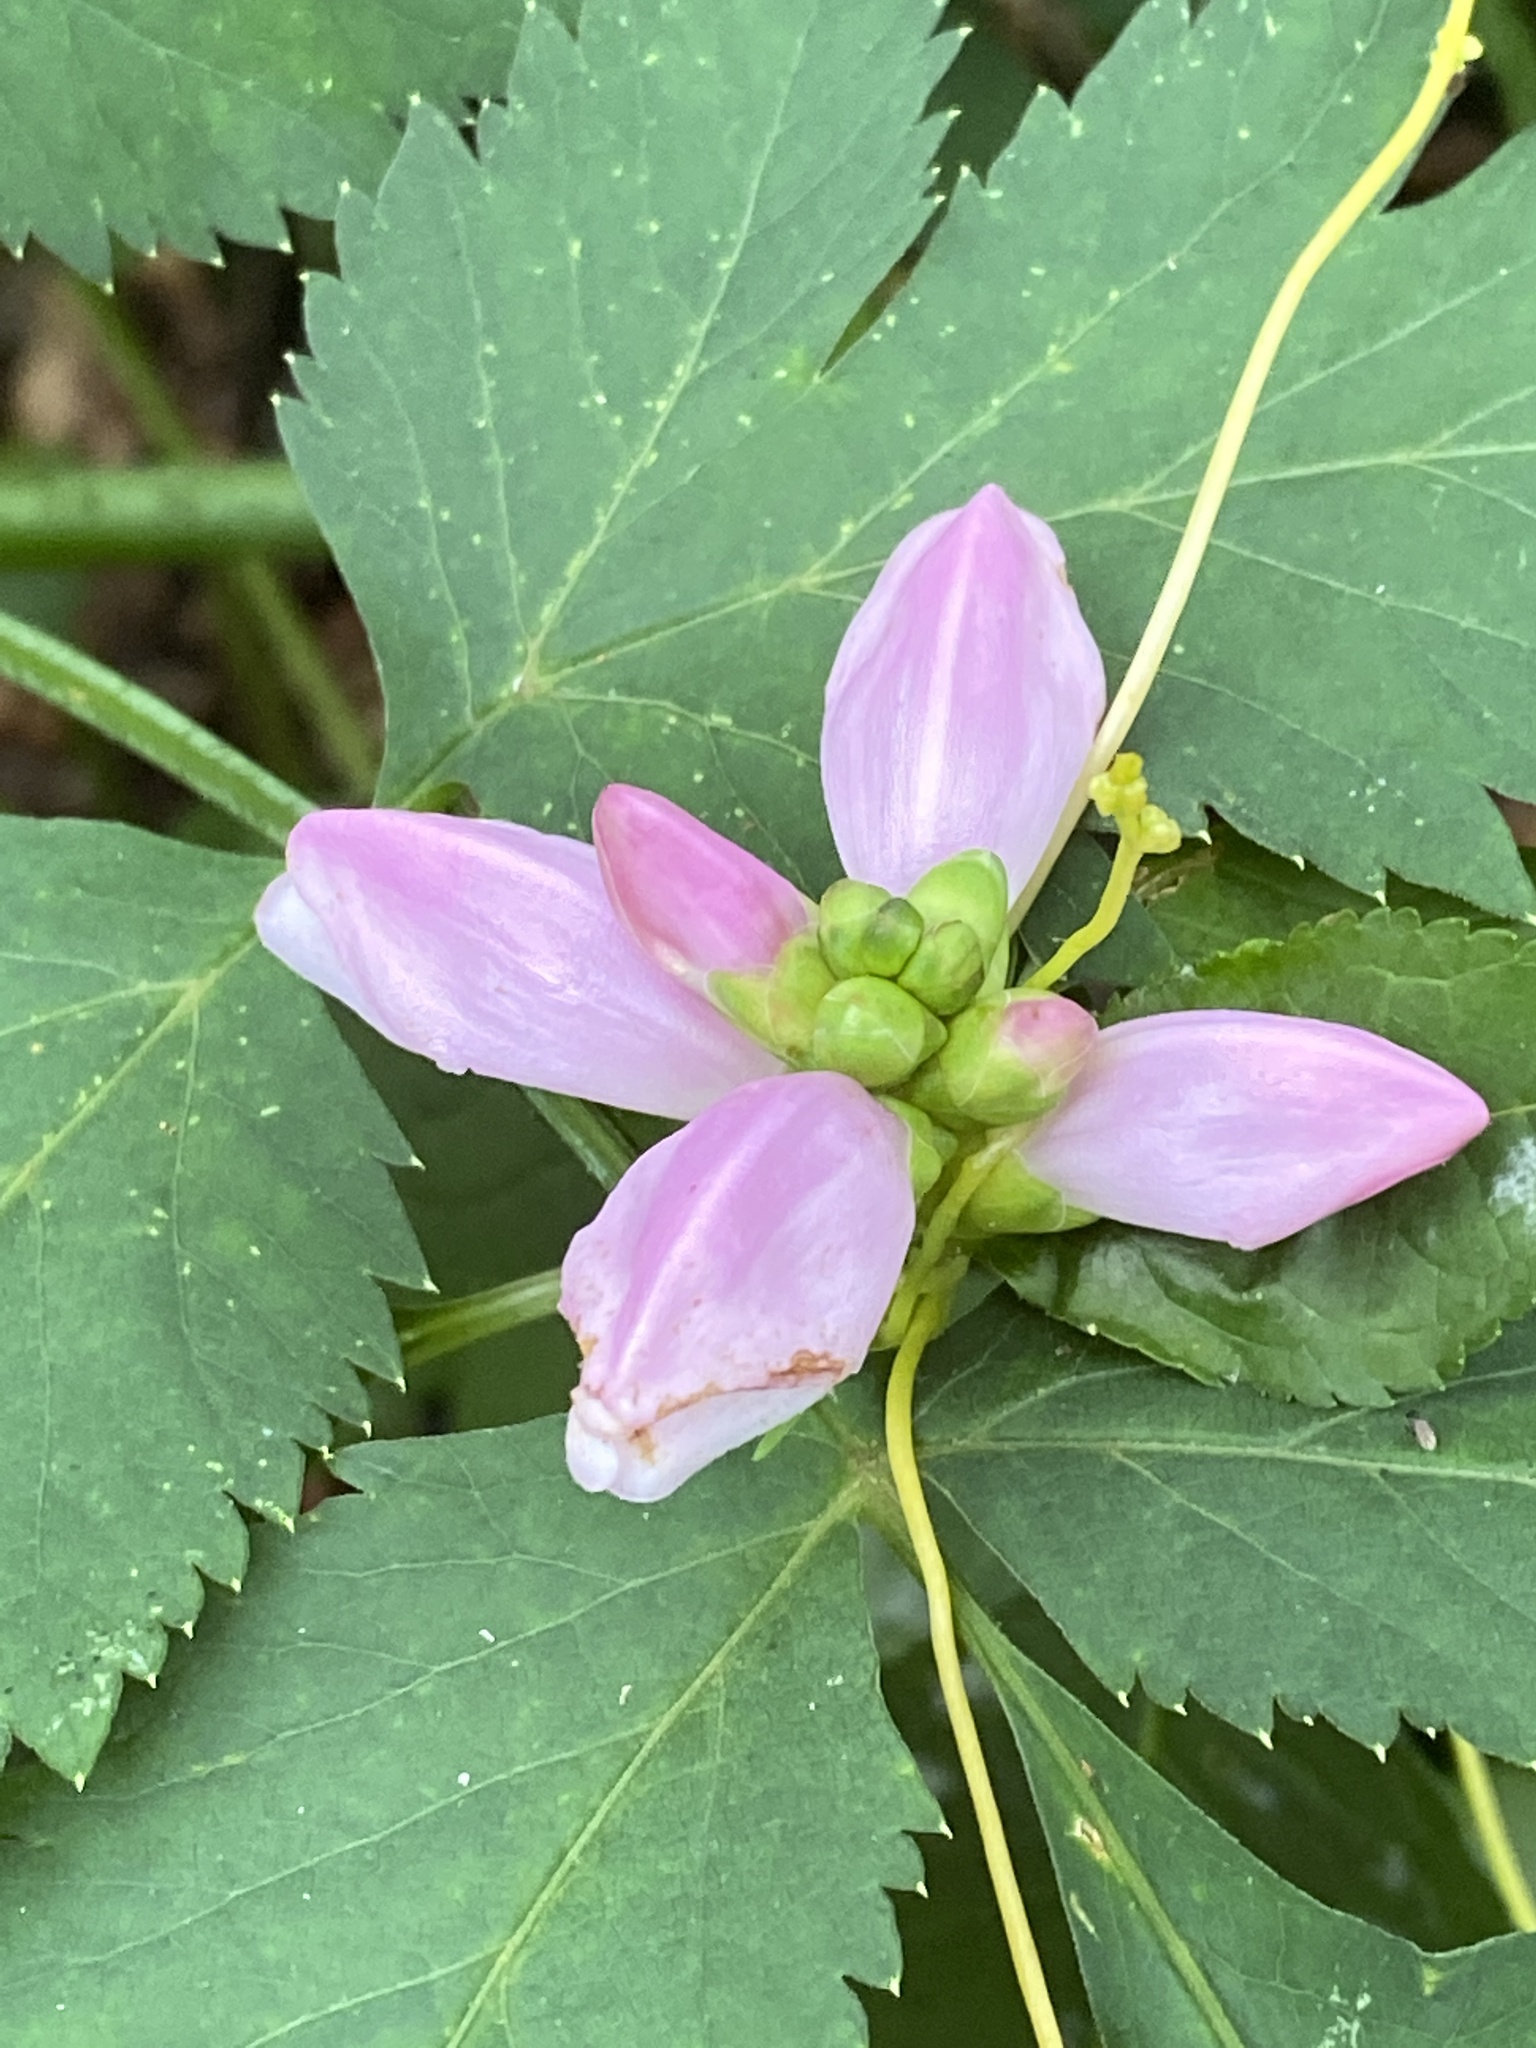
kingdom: Plantae
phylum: Tracheophyta
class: Magnoliopsida
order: Lamiales
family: Plantaginaceae
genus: Chelone
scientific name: Chelone lyonii
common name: Pink turtlehead
